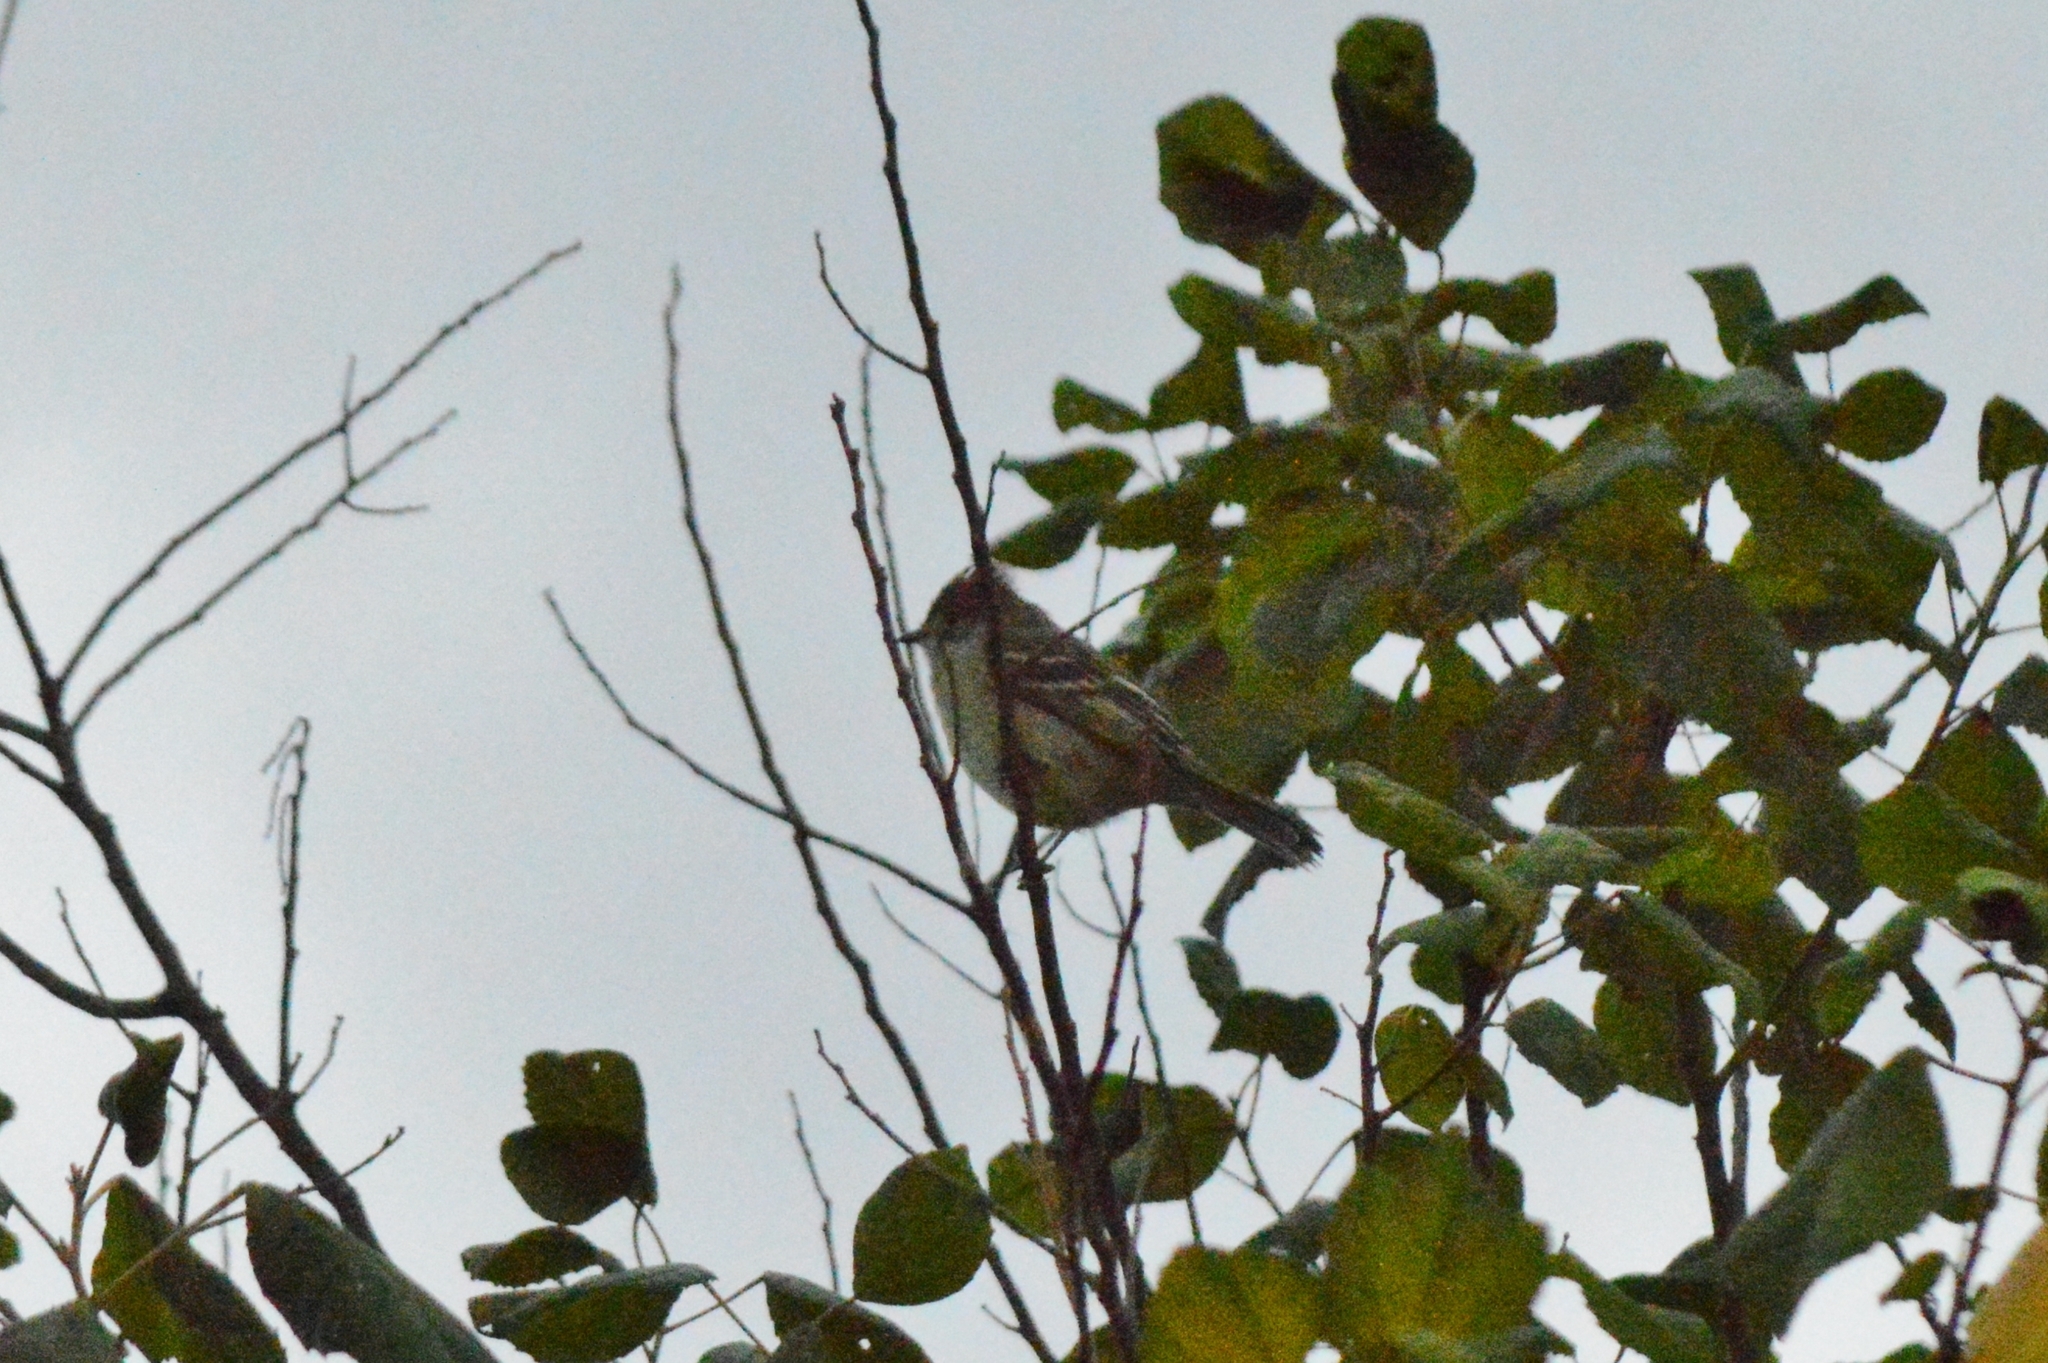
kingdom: Animalia
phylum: Chordata
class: Aves
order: Passeriformes
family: Tyrannidae
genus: Camptostoma
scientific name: Camptostoma obsoletum
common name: Southern beardless-tyrannulet
